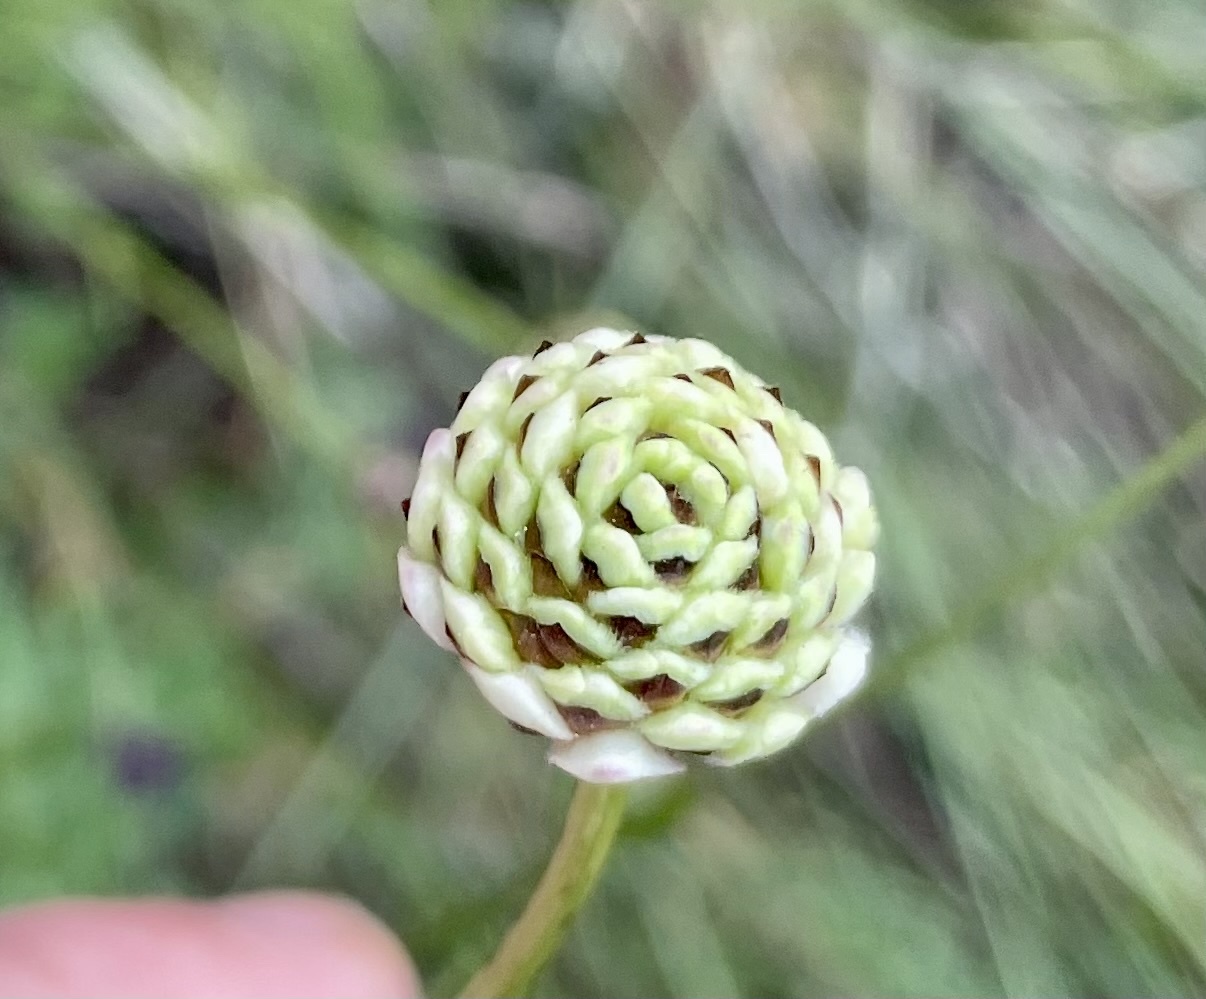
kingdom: Plantae
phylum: Tracheophyta
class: Magnoliopsida
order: Dipsacales
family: Caprifoliaceae
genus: Cephalaria
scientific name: Cephalaria leucantha
